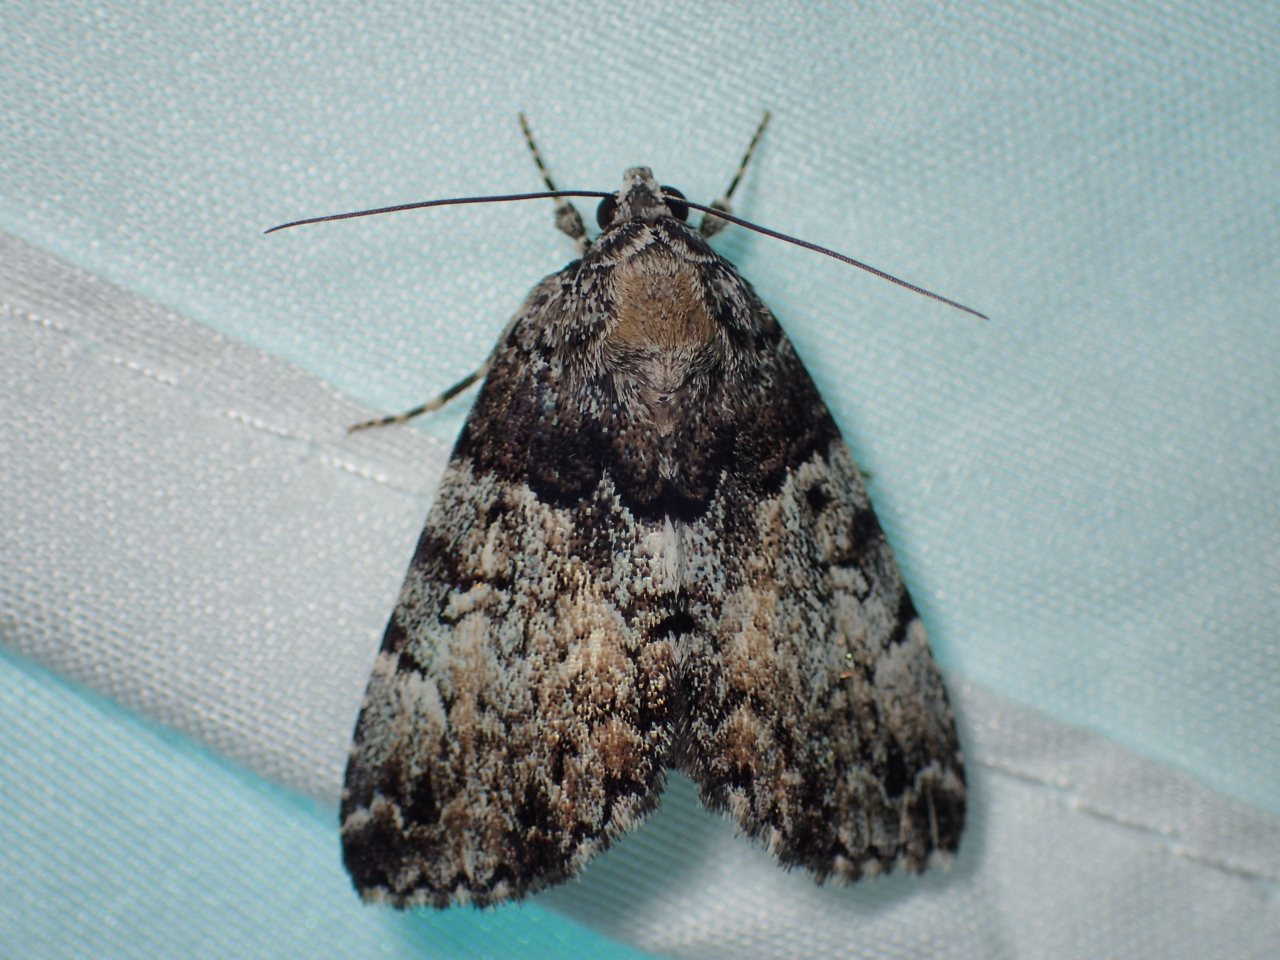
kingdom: Animalia
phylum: Arthropoda
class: Insecta
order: Lepidoptera
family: Erebidae
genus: Allotria
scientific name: Allotria elonympha
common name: False underwing
